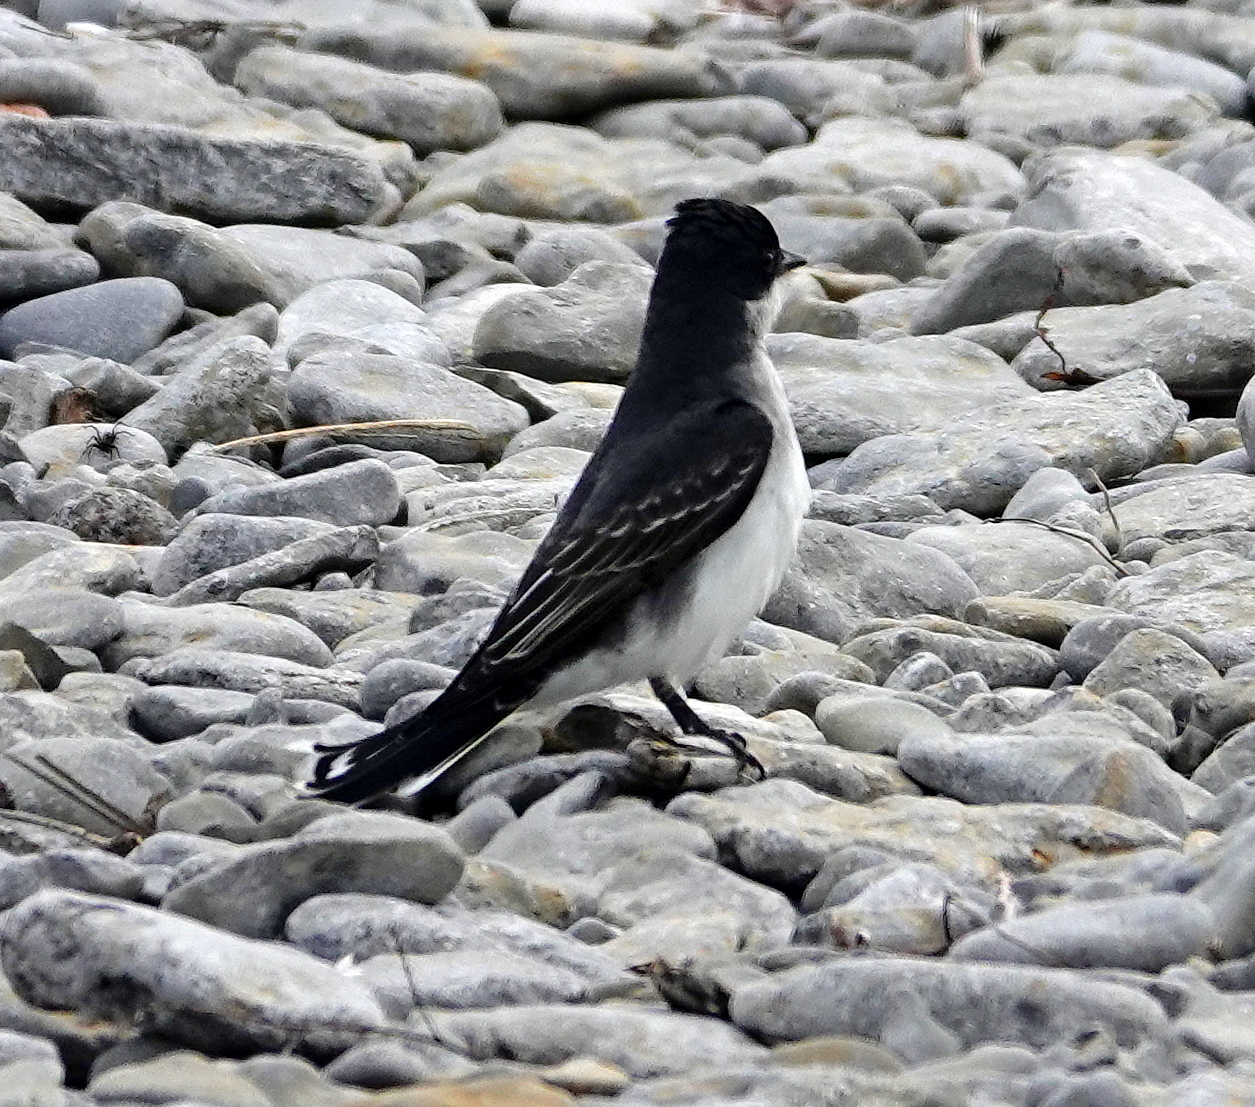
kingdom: Animalia
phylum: Chordata
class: Aves
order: Passeriformes
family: Tyrannidae
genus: Tyrannus
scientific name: Tyrannus tyrannus
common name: Eastern kingbird
